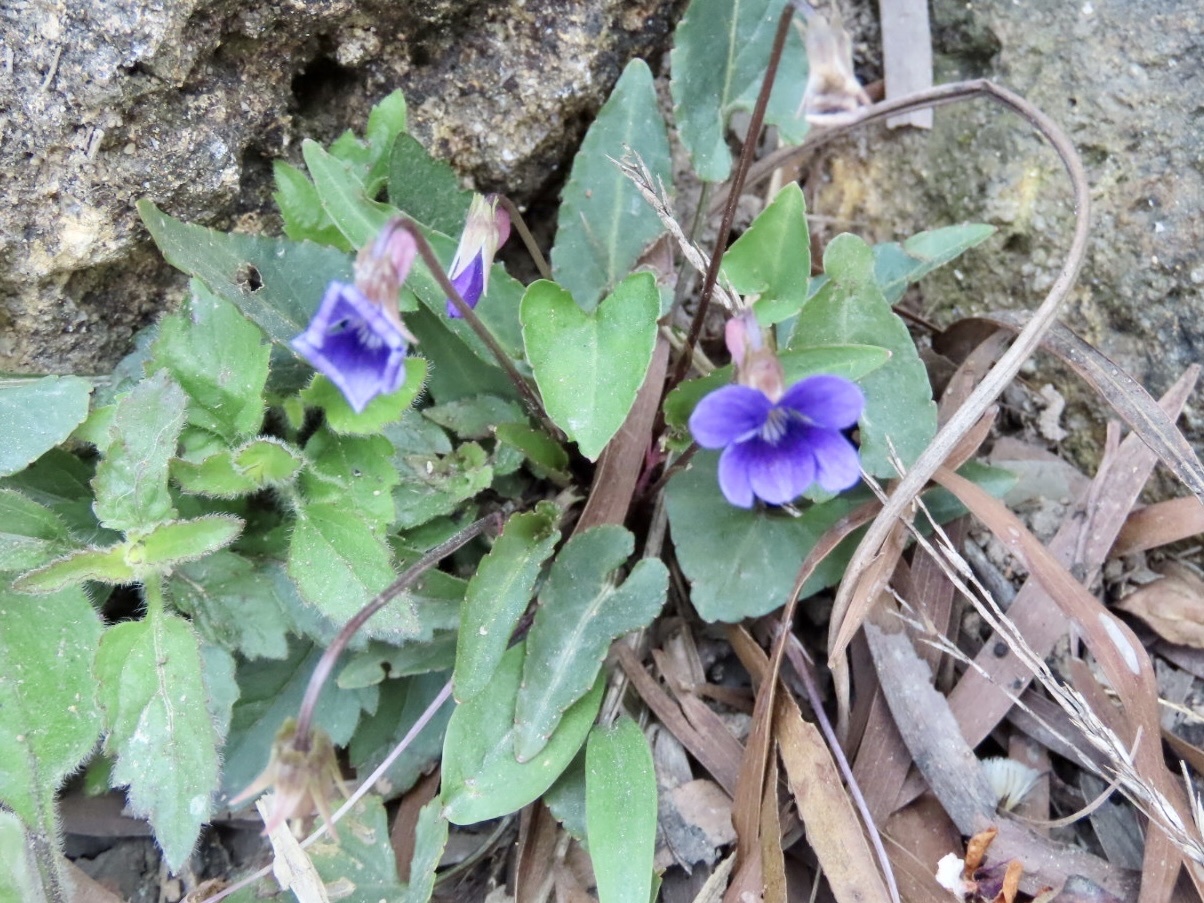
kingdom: Plantae
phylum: Tracheophyta
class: Magnoliopsida
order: Malpighiales
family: Violaceae
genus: Viola
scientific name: Viola inconspicua
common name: Long sepal violet
